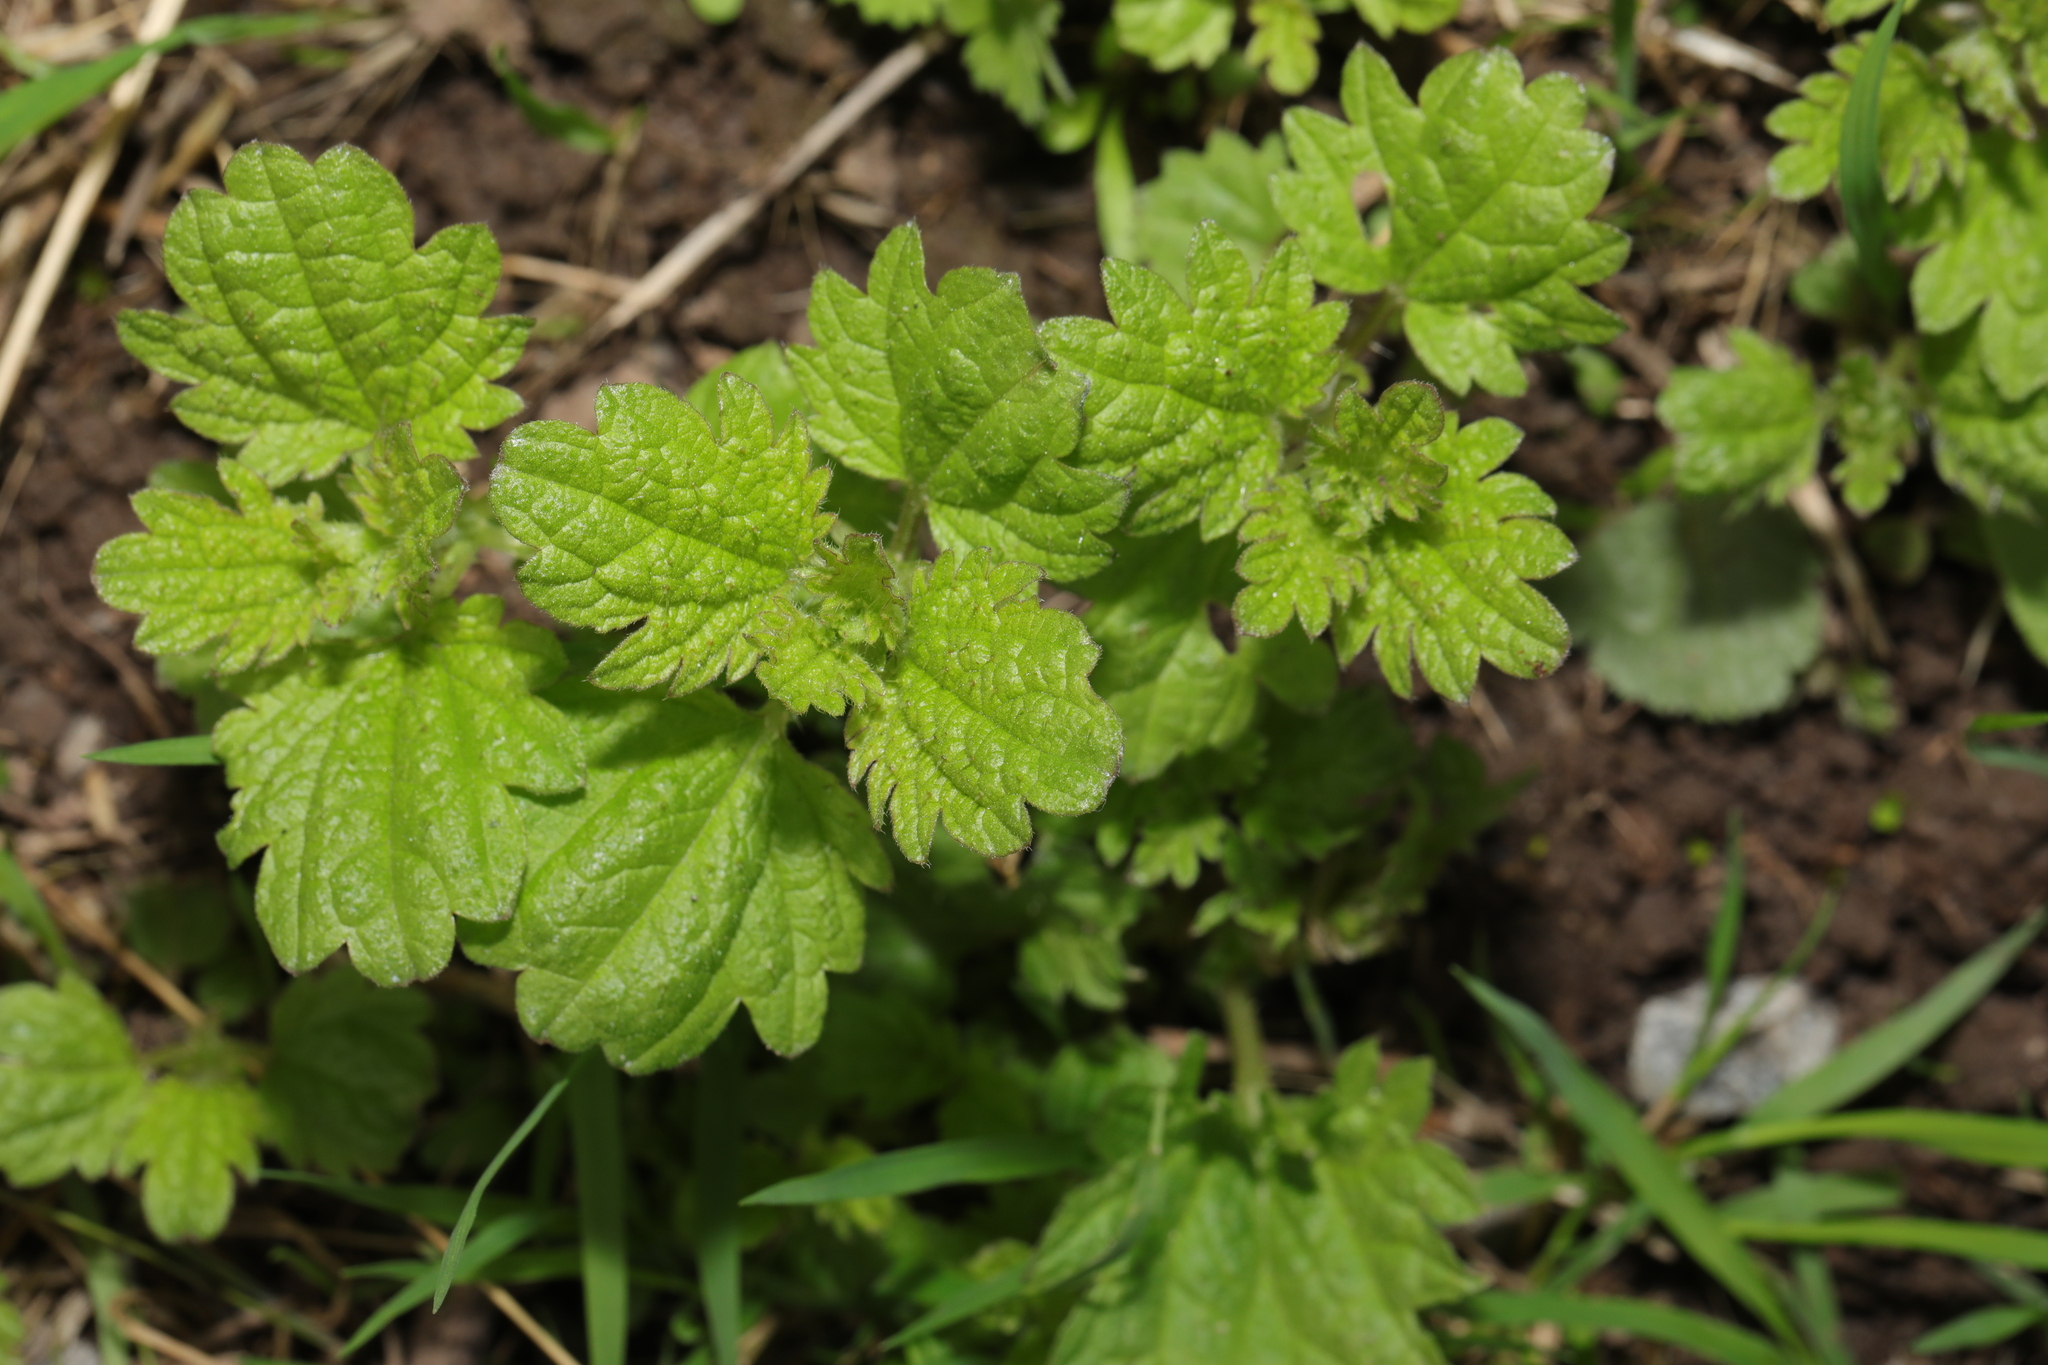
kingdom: Plantae
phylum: Tracheophyta
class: Magnoliopsida
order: Lamiales
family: Lamiaceae
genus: Lamium
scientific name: Lamium hybridum
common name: Cut-leaved dead-nettle
